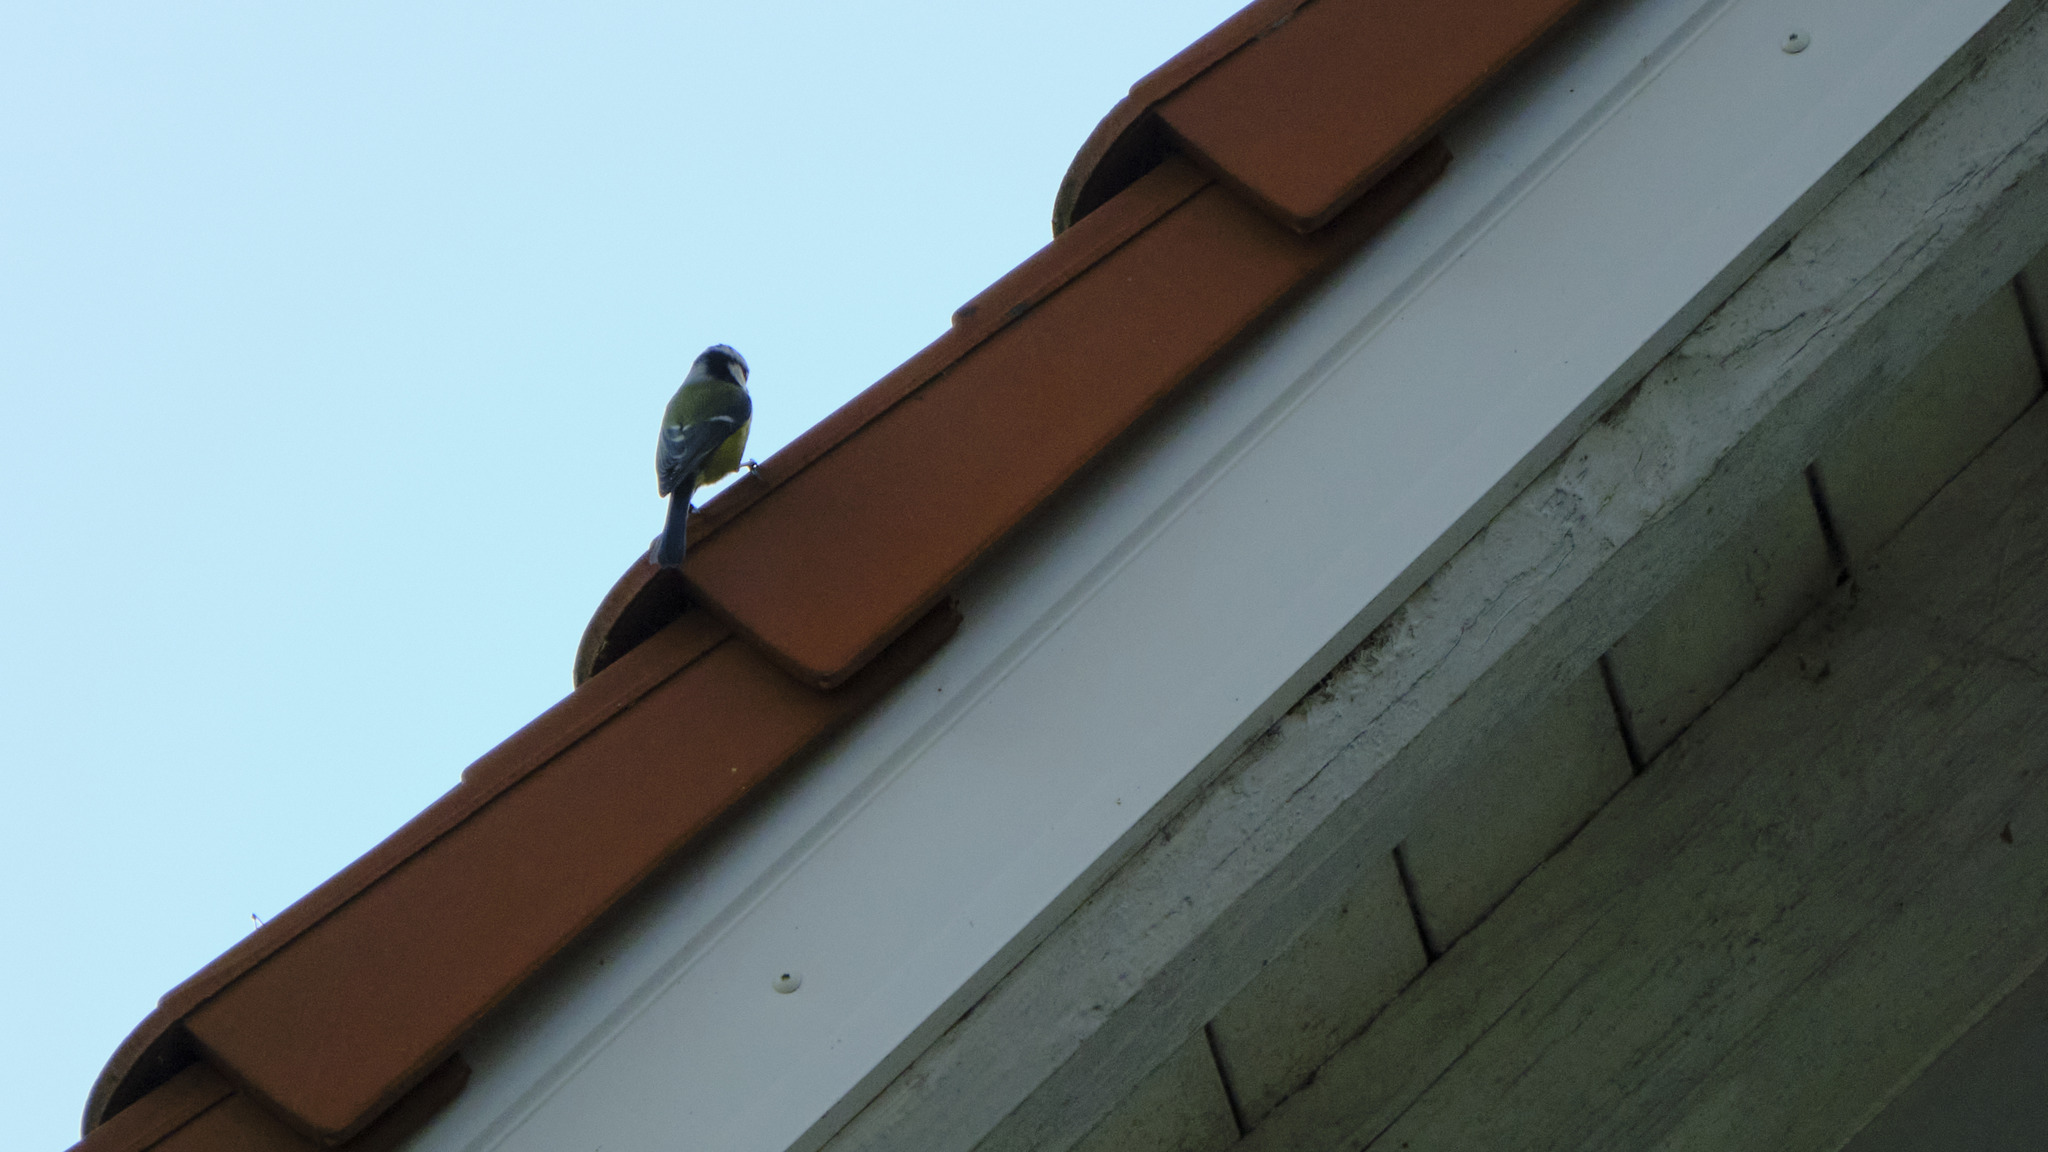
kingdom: Animalia
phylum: Chordata
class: Aves
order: Passeriformes
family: Paridae
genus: Cyanistes
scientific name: Cyanistes caeruleus
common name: Eurasian blue tit
